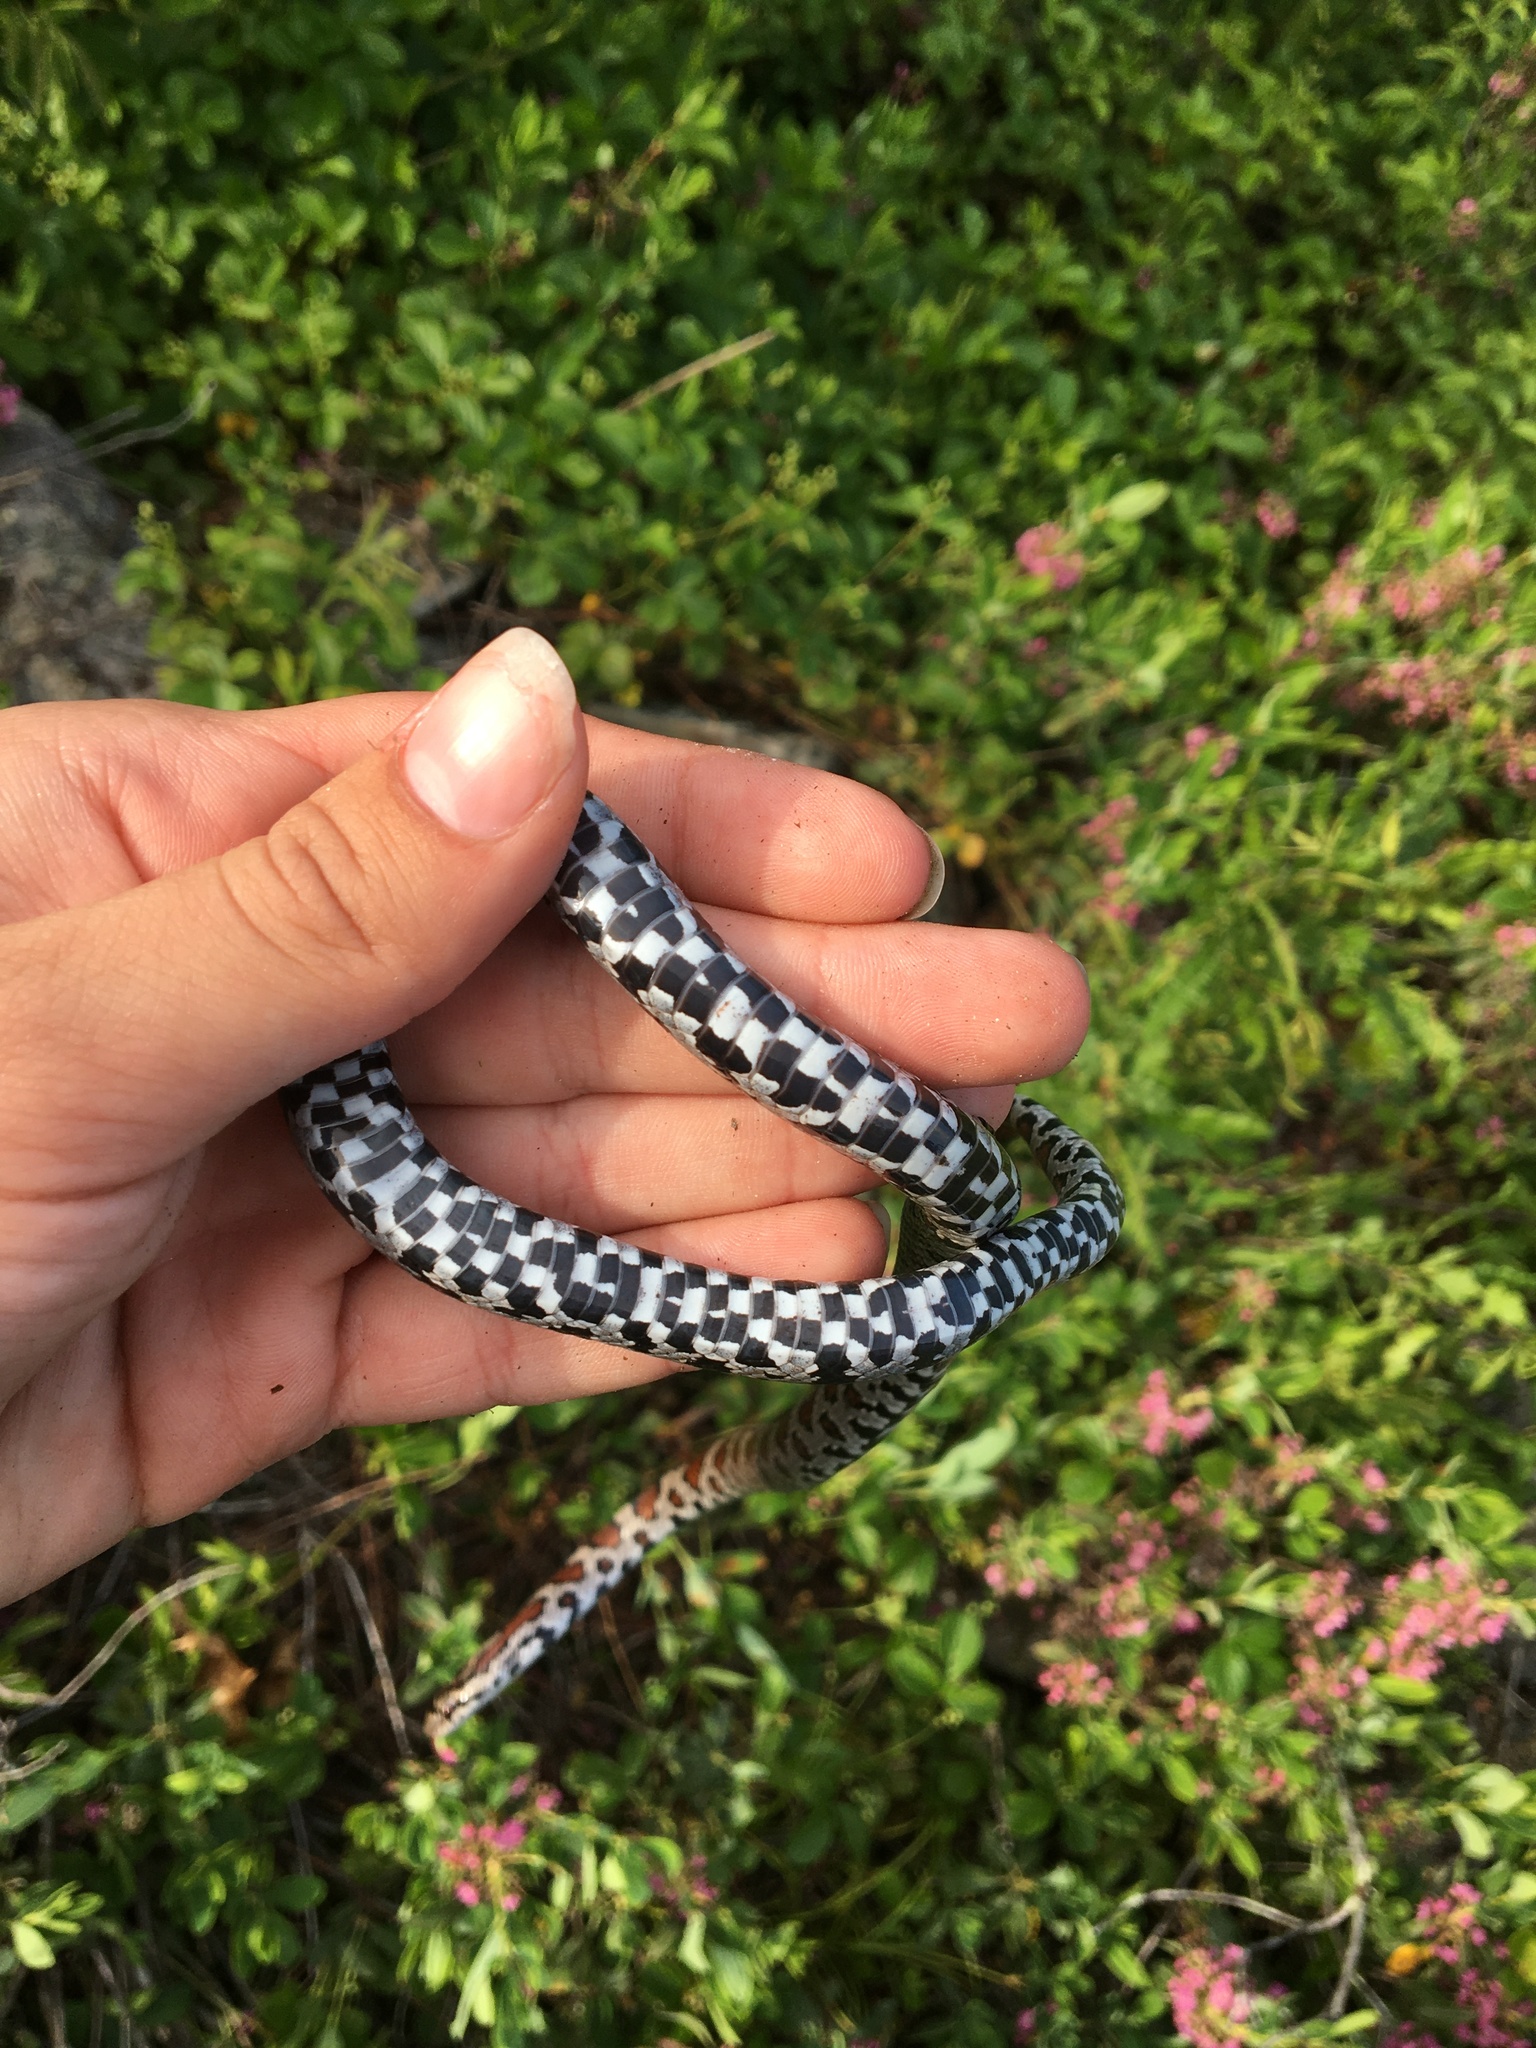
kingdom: Animalia
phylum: Chordata
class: Squamata
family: Colubridae
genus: Lampropeltis
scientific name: Lampropeltis triangulum
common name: Eastern milksnake
